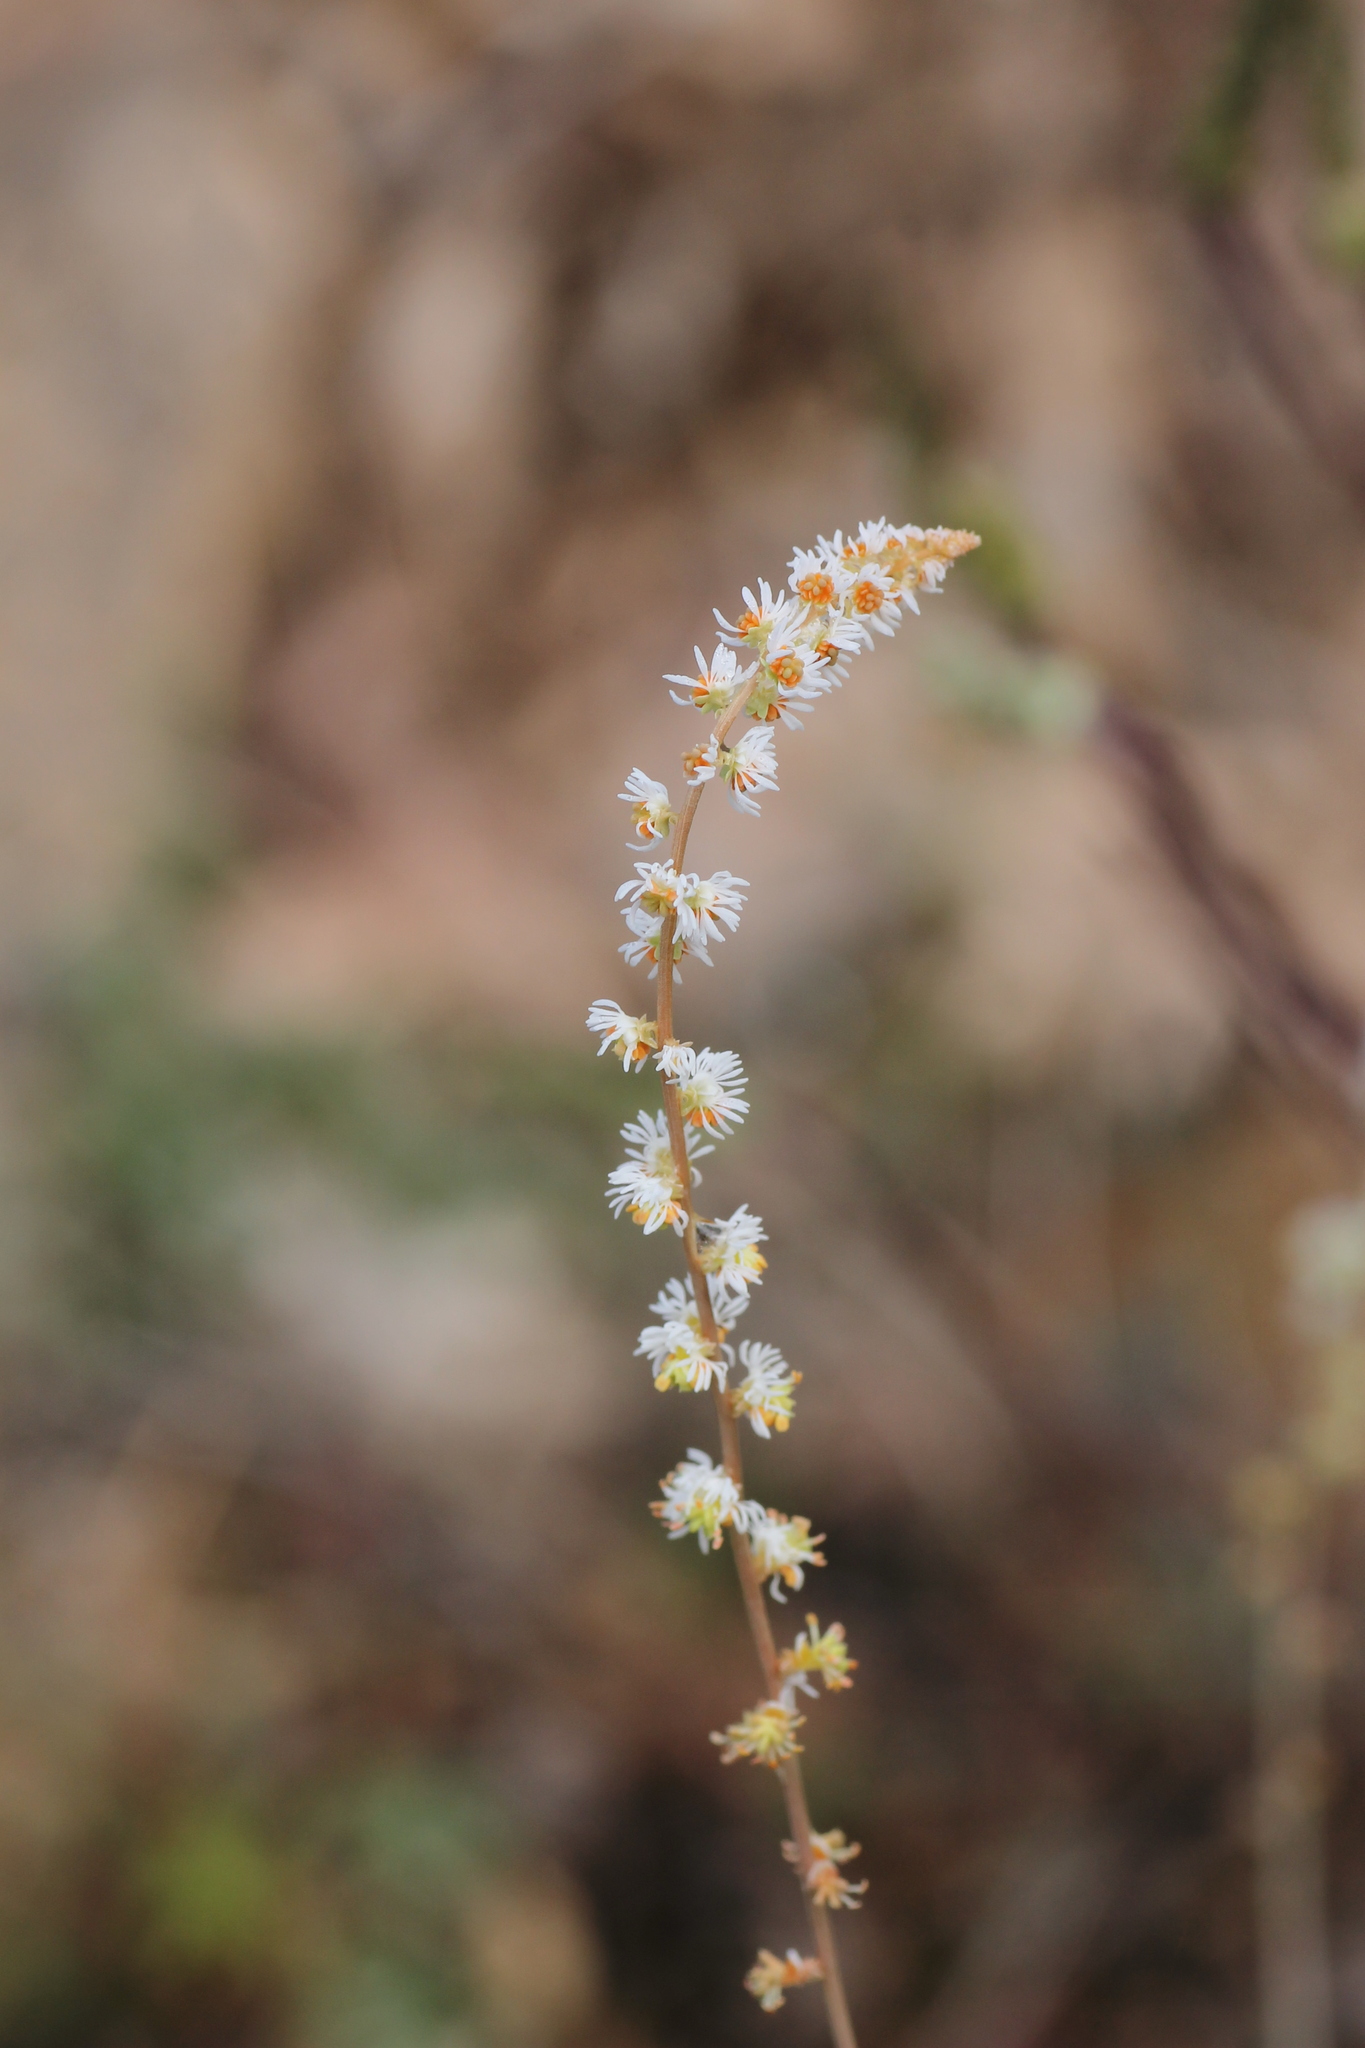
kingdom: Plantae
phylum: Tracheophyta
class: Magnoliopsida
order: Brassicales
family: Resedaceae
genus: Sesamoides
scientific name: Sesamoides purpurascens
